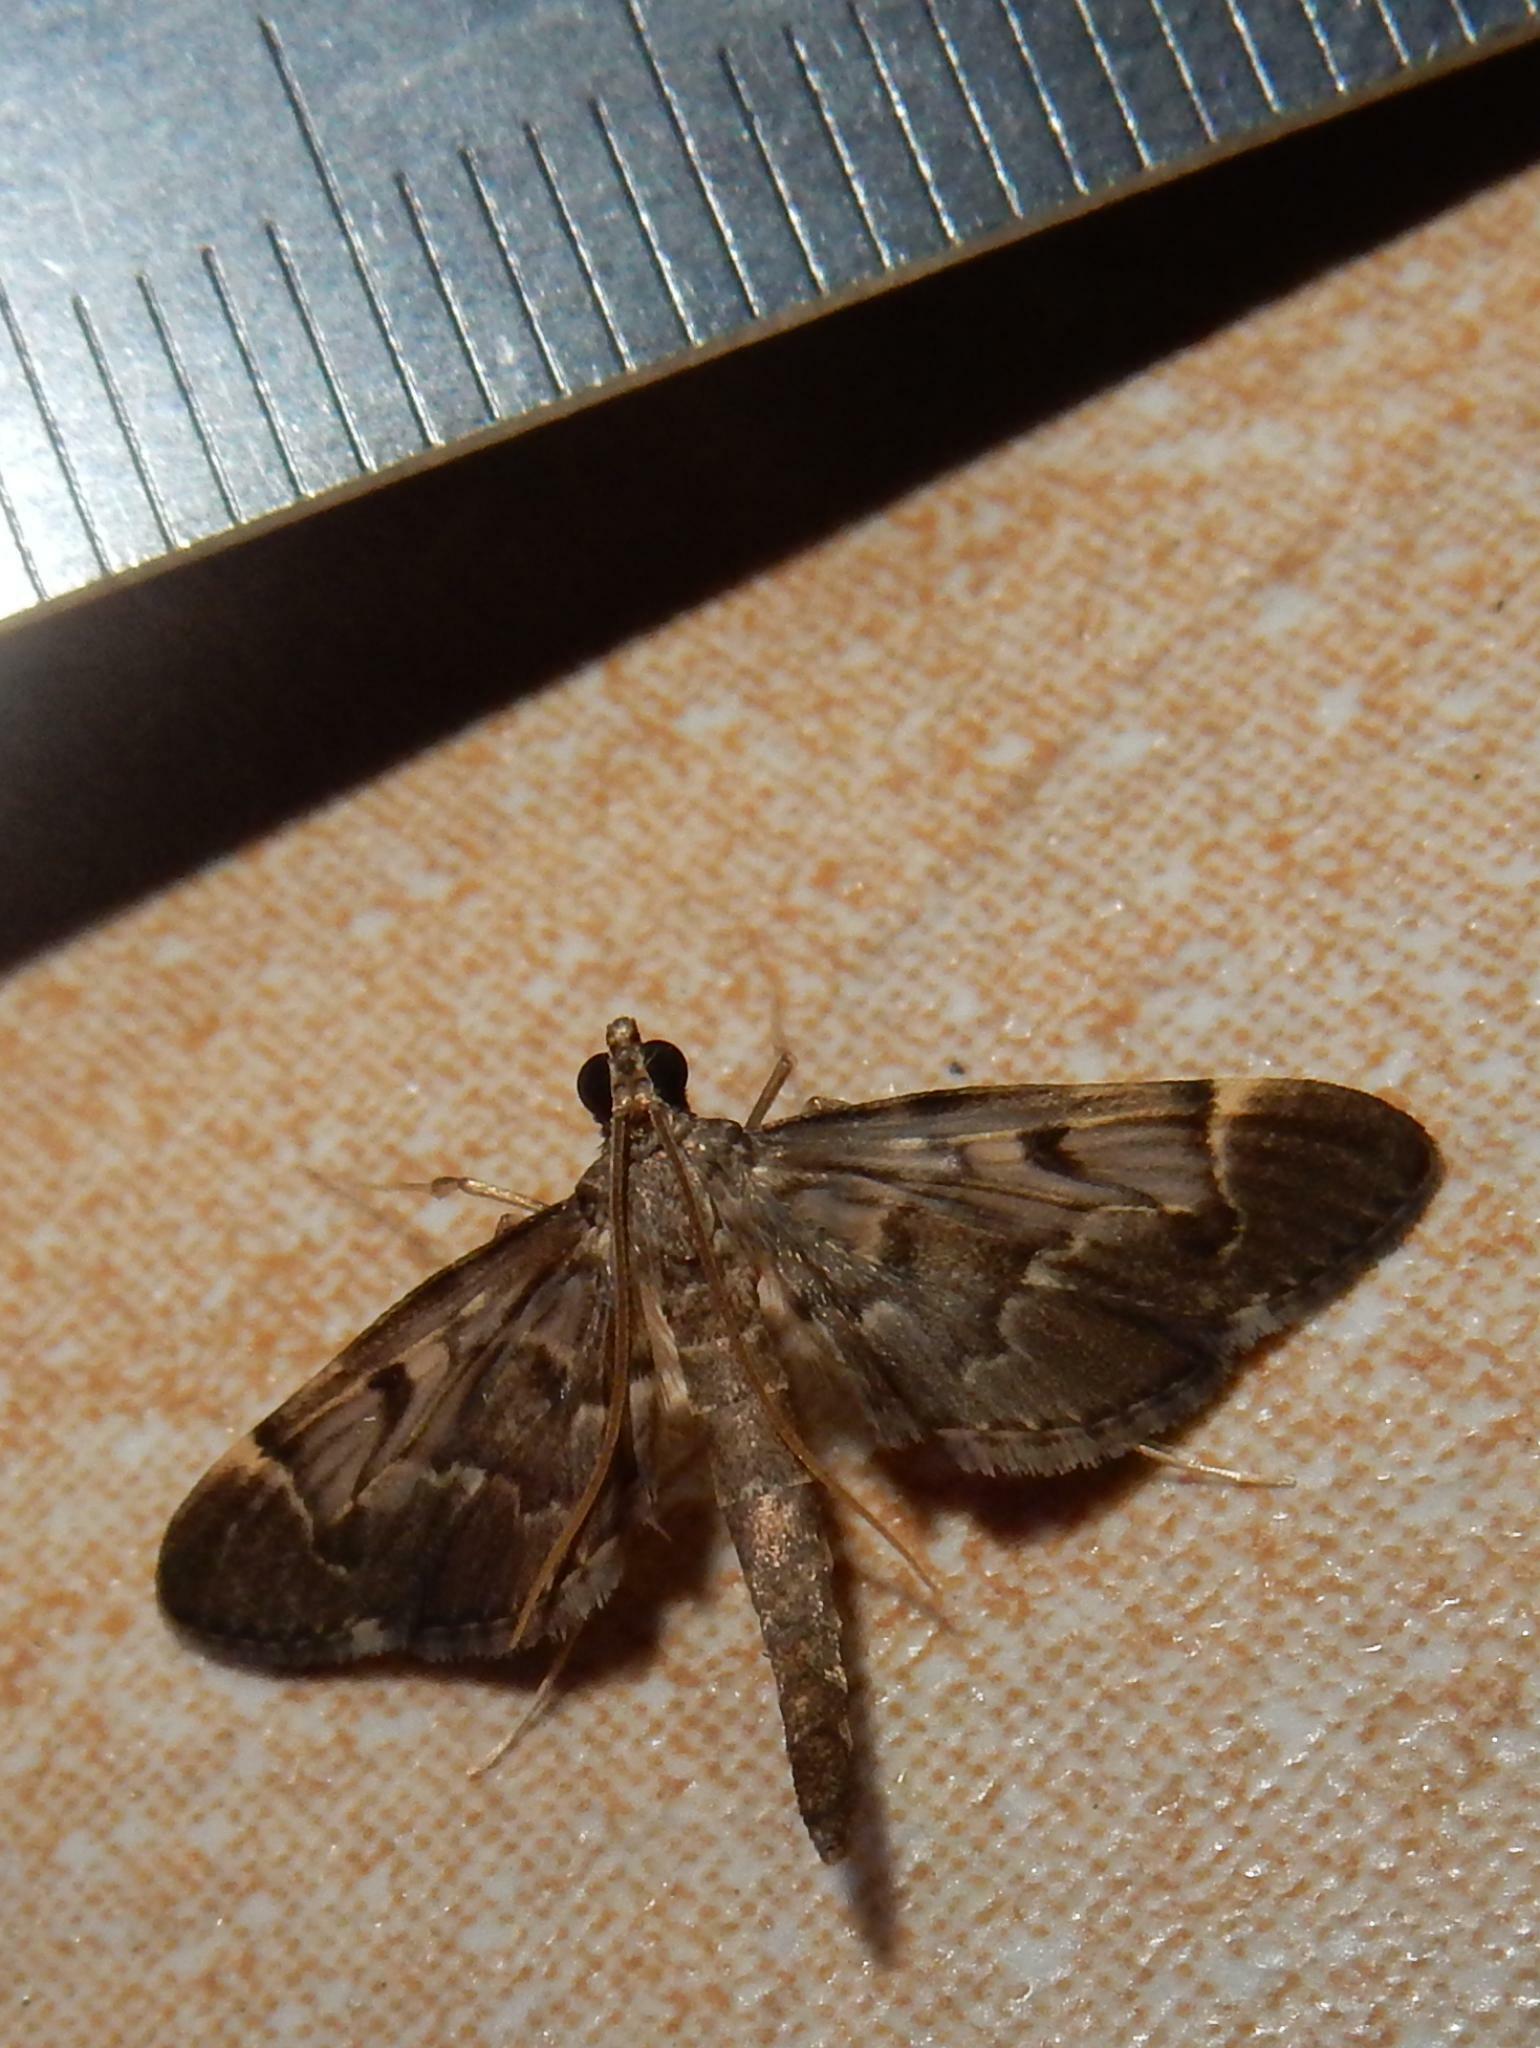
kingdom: Animalia
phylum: Arthropoda
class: Insecta
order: Lepidoptera
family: Crambidae
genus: Duponchelia
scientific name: Duponchelia lanceolalis
